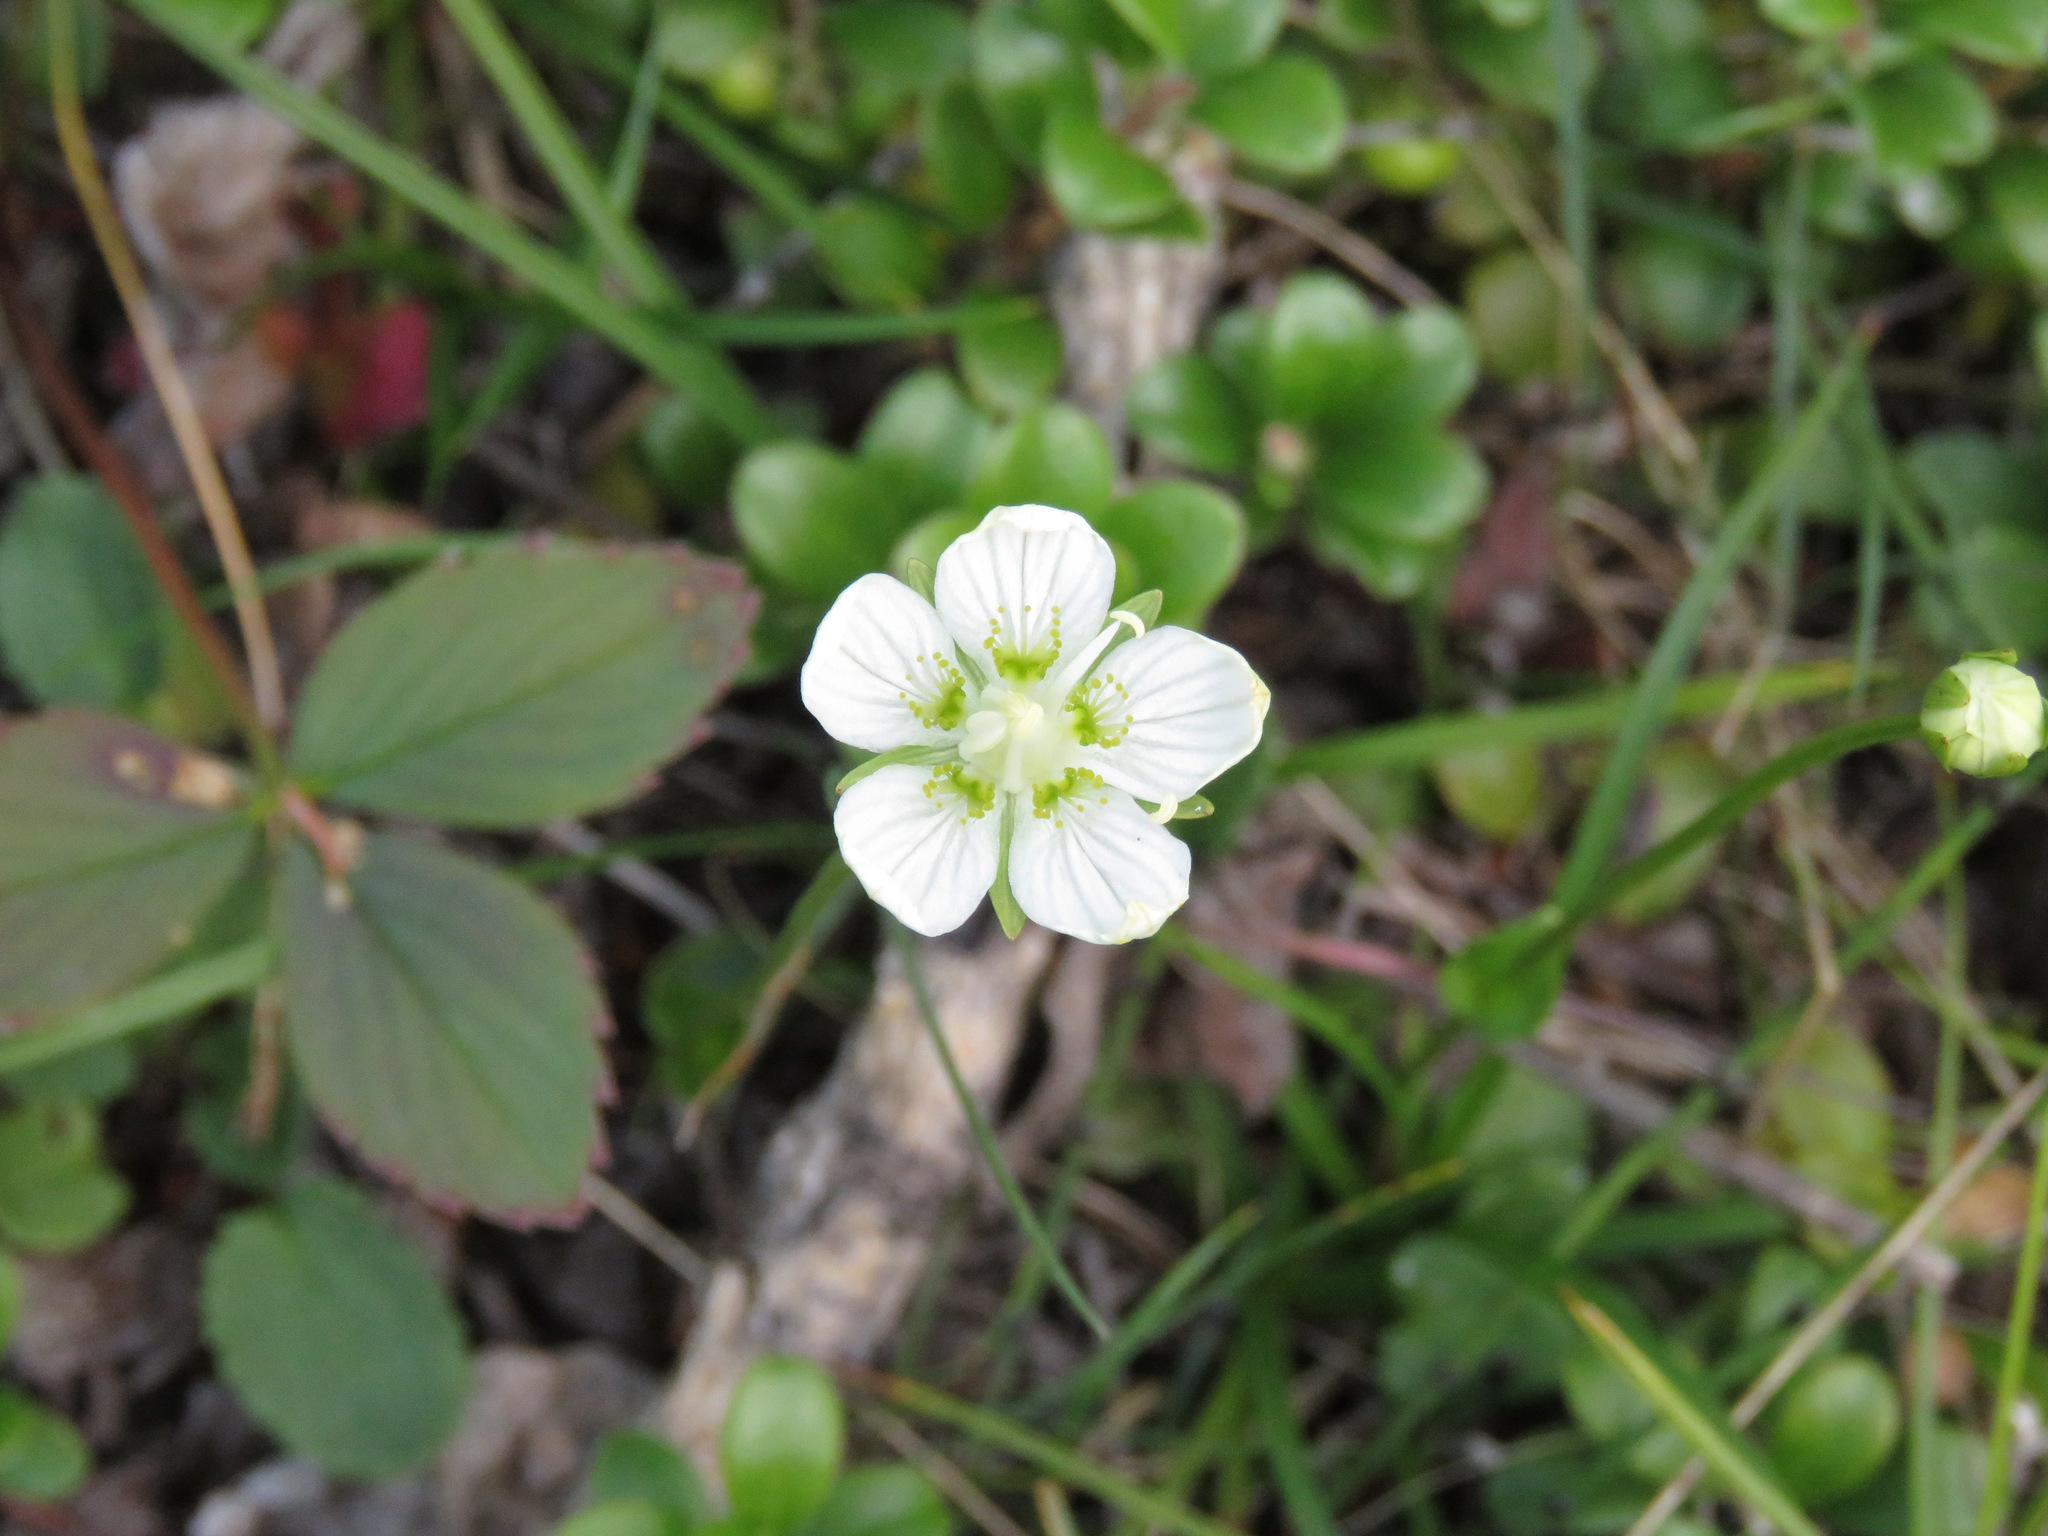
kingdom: Plantae
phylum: Tracheophyta
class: Magnoliopsida
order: Celastrales
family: Parnassiaceae
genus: Parnassia
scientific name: Parnassia palustris
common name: Grass-of-parnassus
